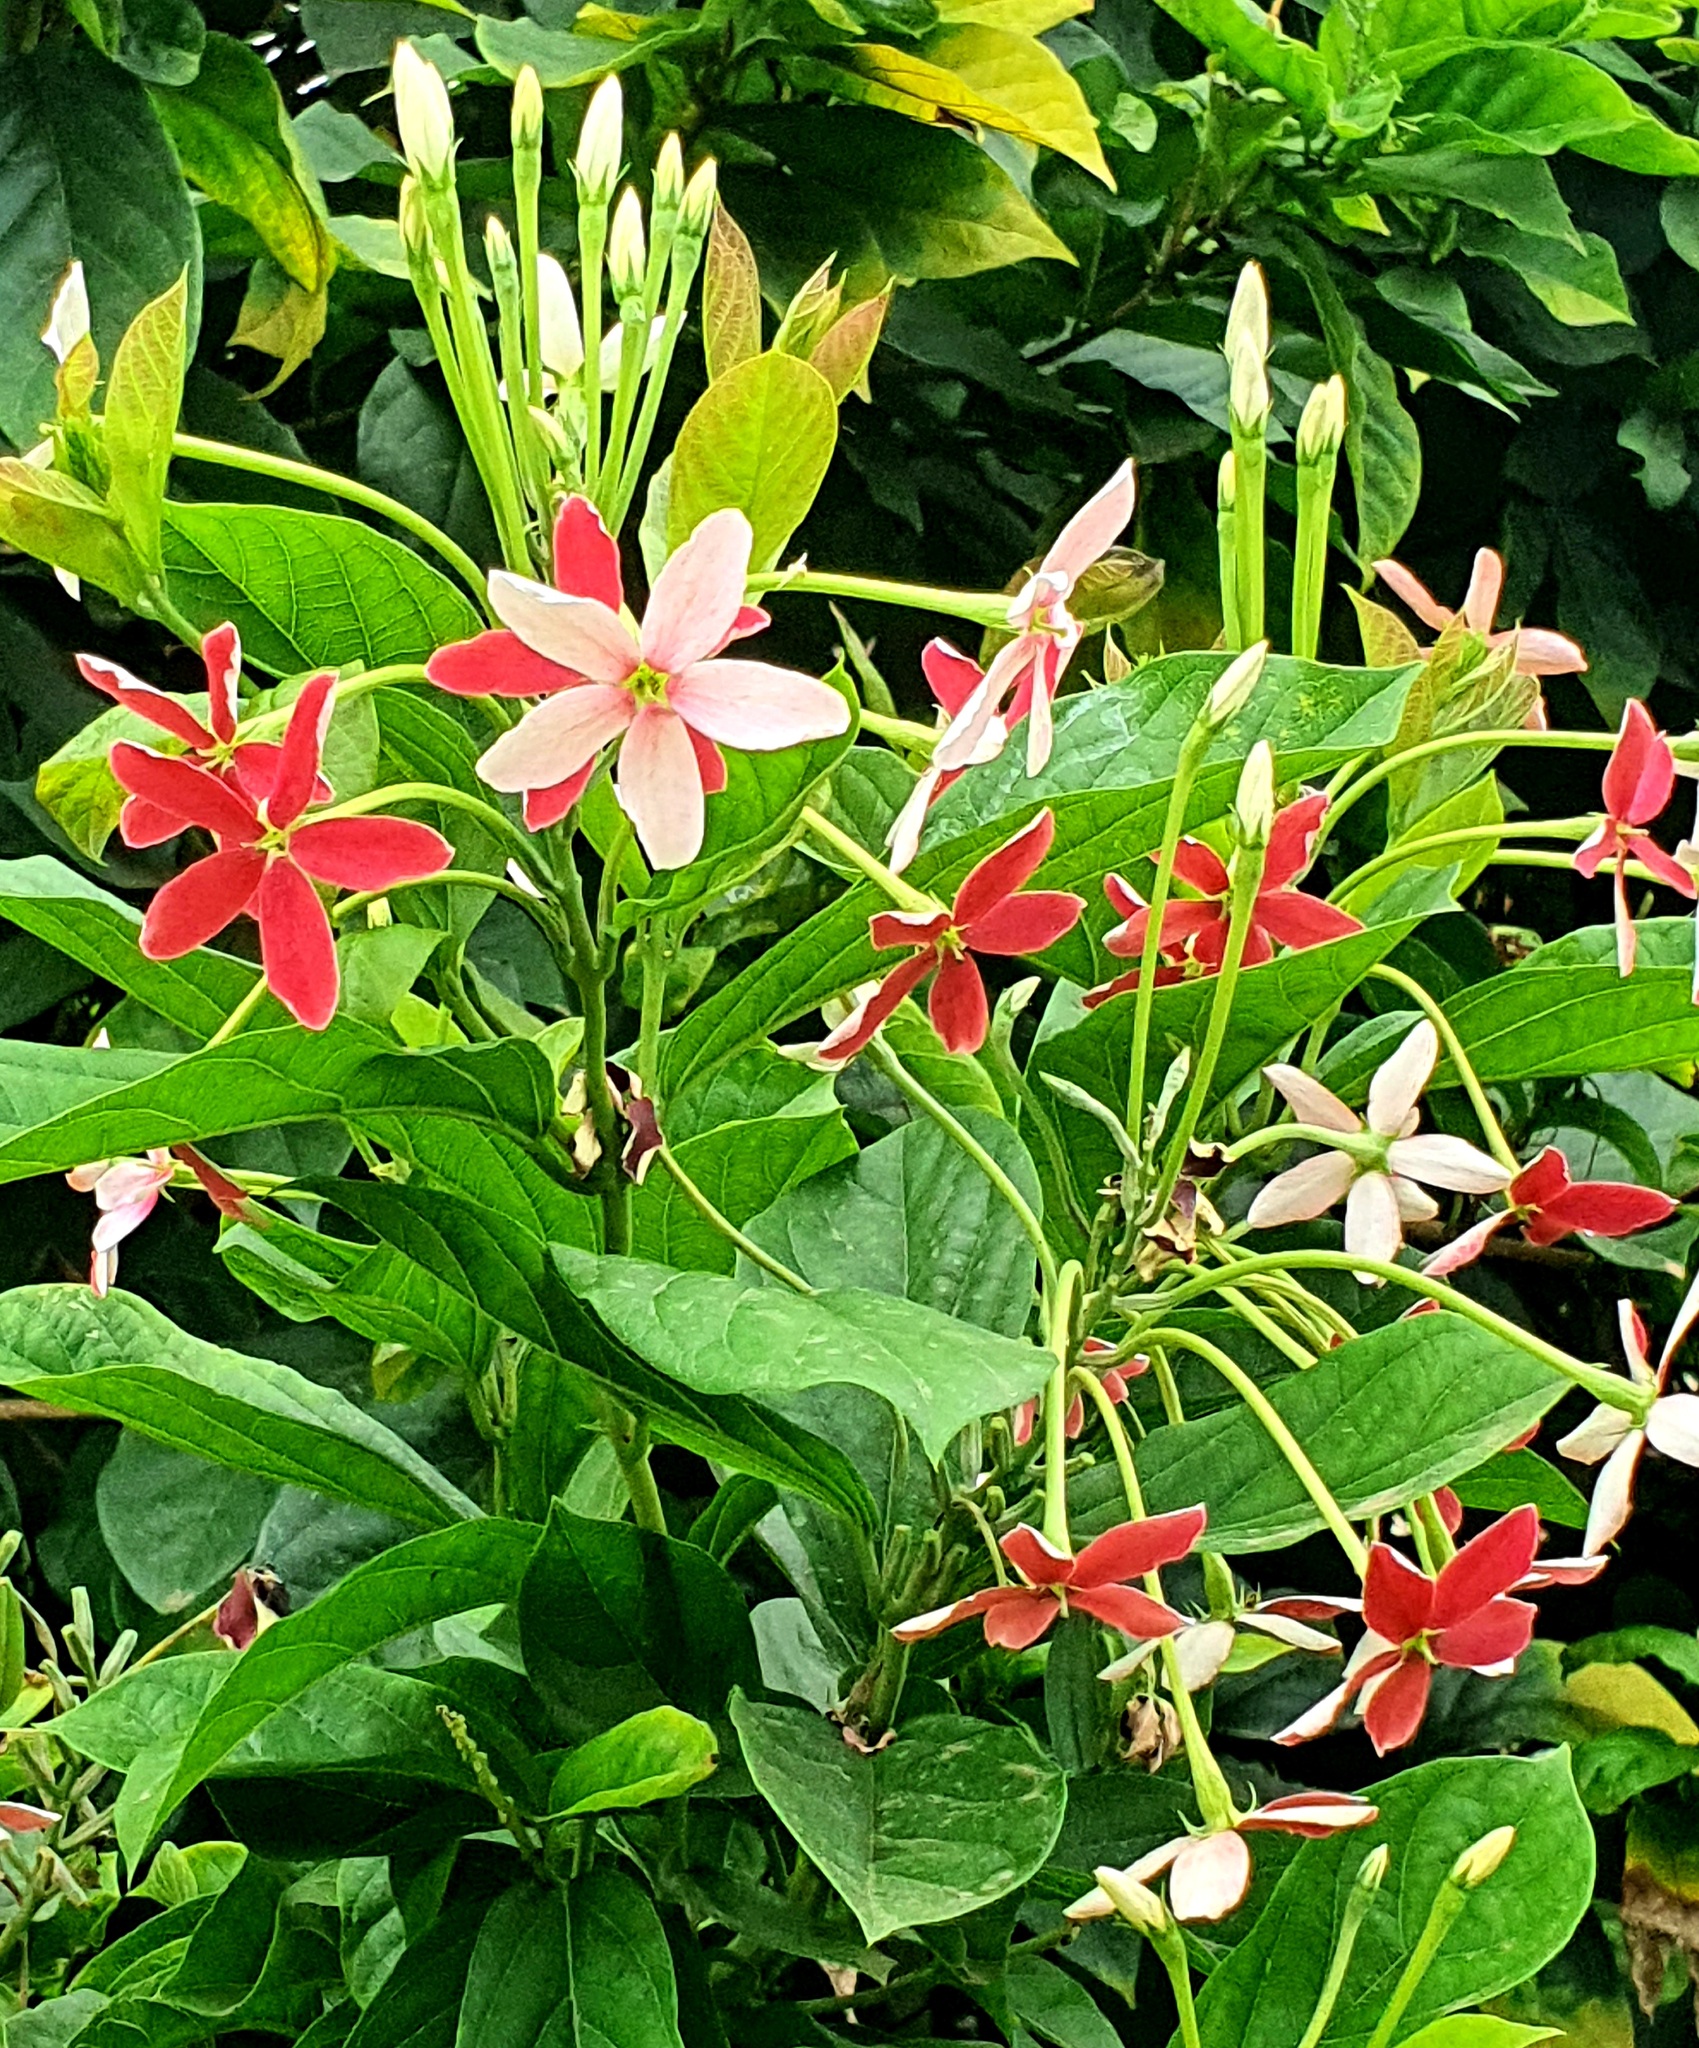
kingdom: Plantae
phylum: Tracheophyta
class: Magnoliopsida
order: Myrtales
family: Combretaceae
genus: Combretum
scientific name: Combretum indicum
